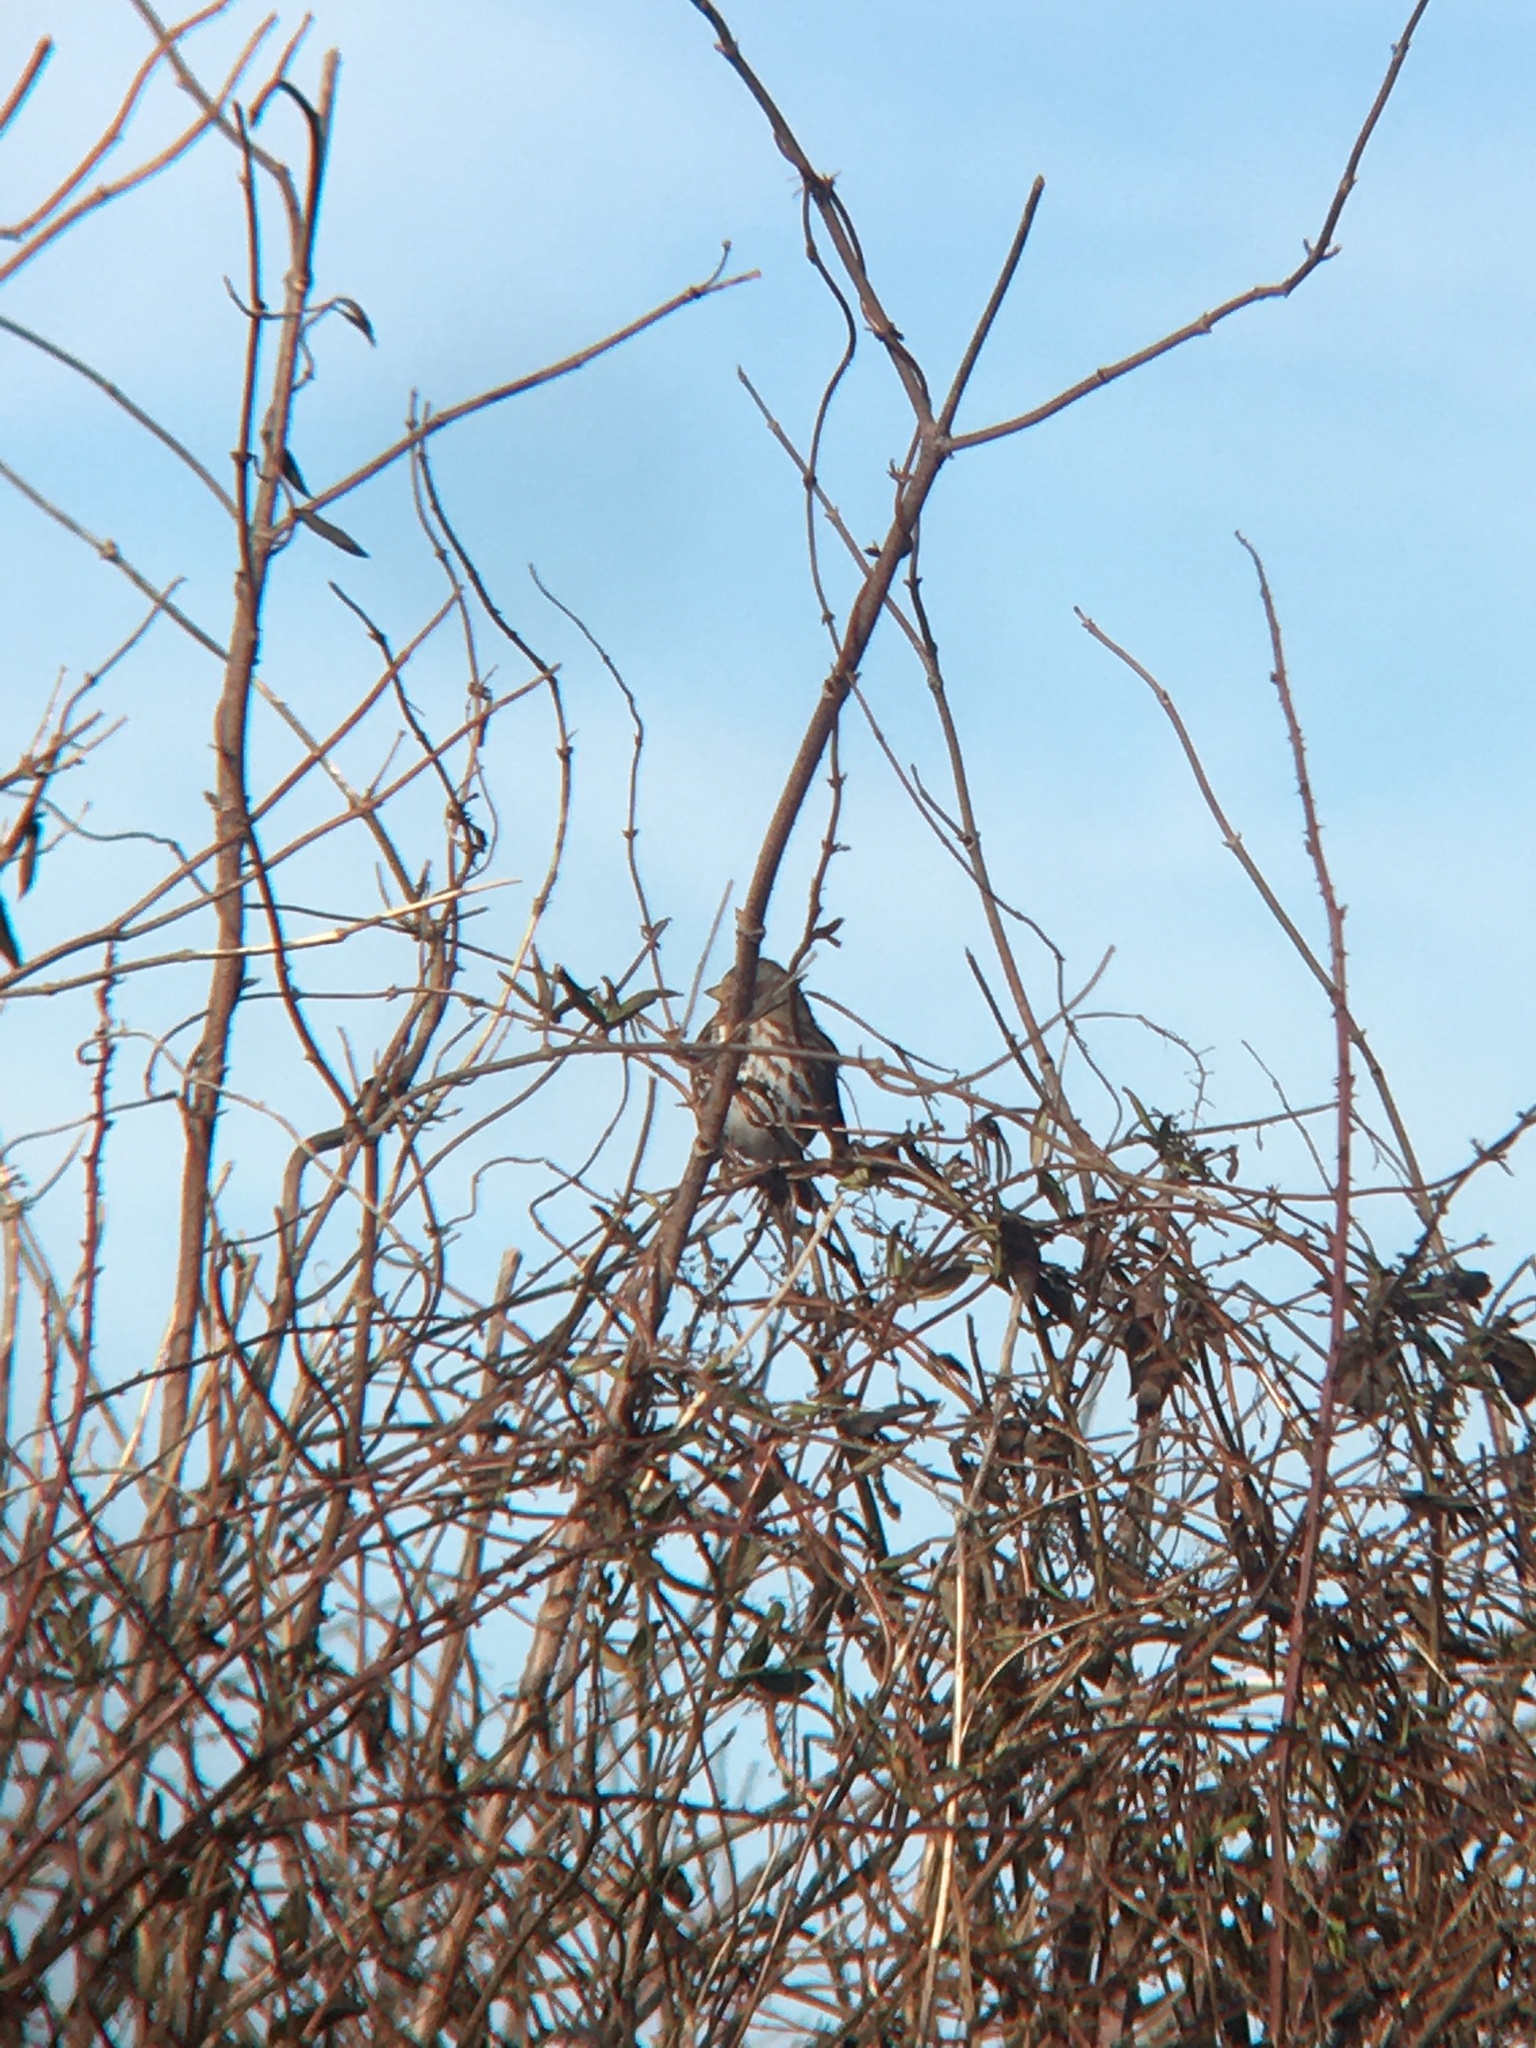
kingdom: Animalia
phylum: Chordata
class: Aves
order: Passeriformes
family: Passerellidae
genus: Passerella
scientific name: Passerella iliaca
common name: Fox sparrow
